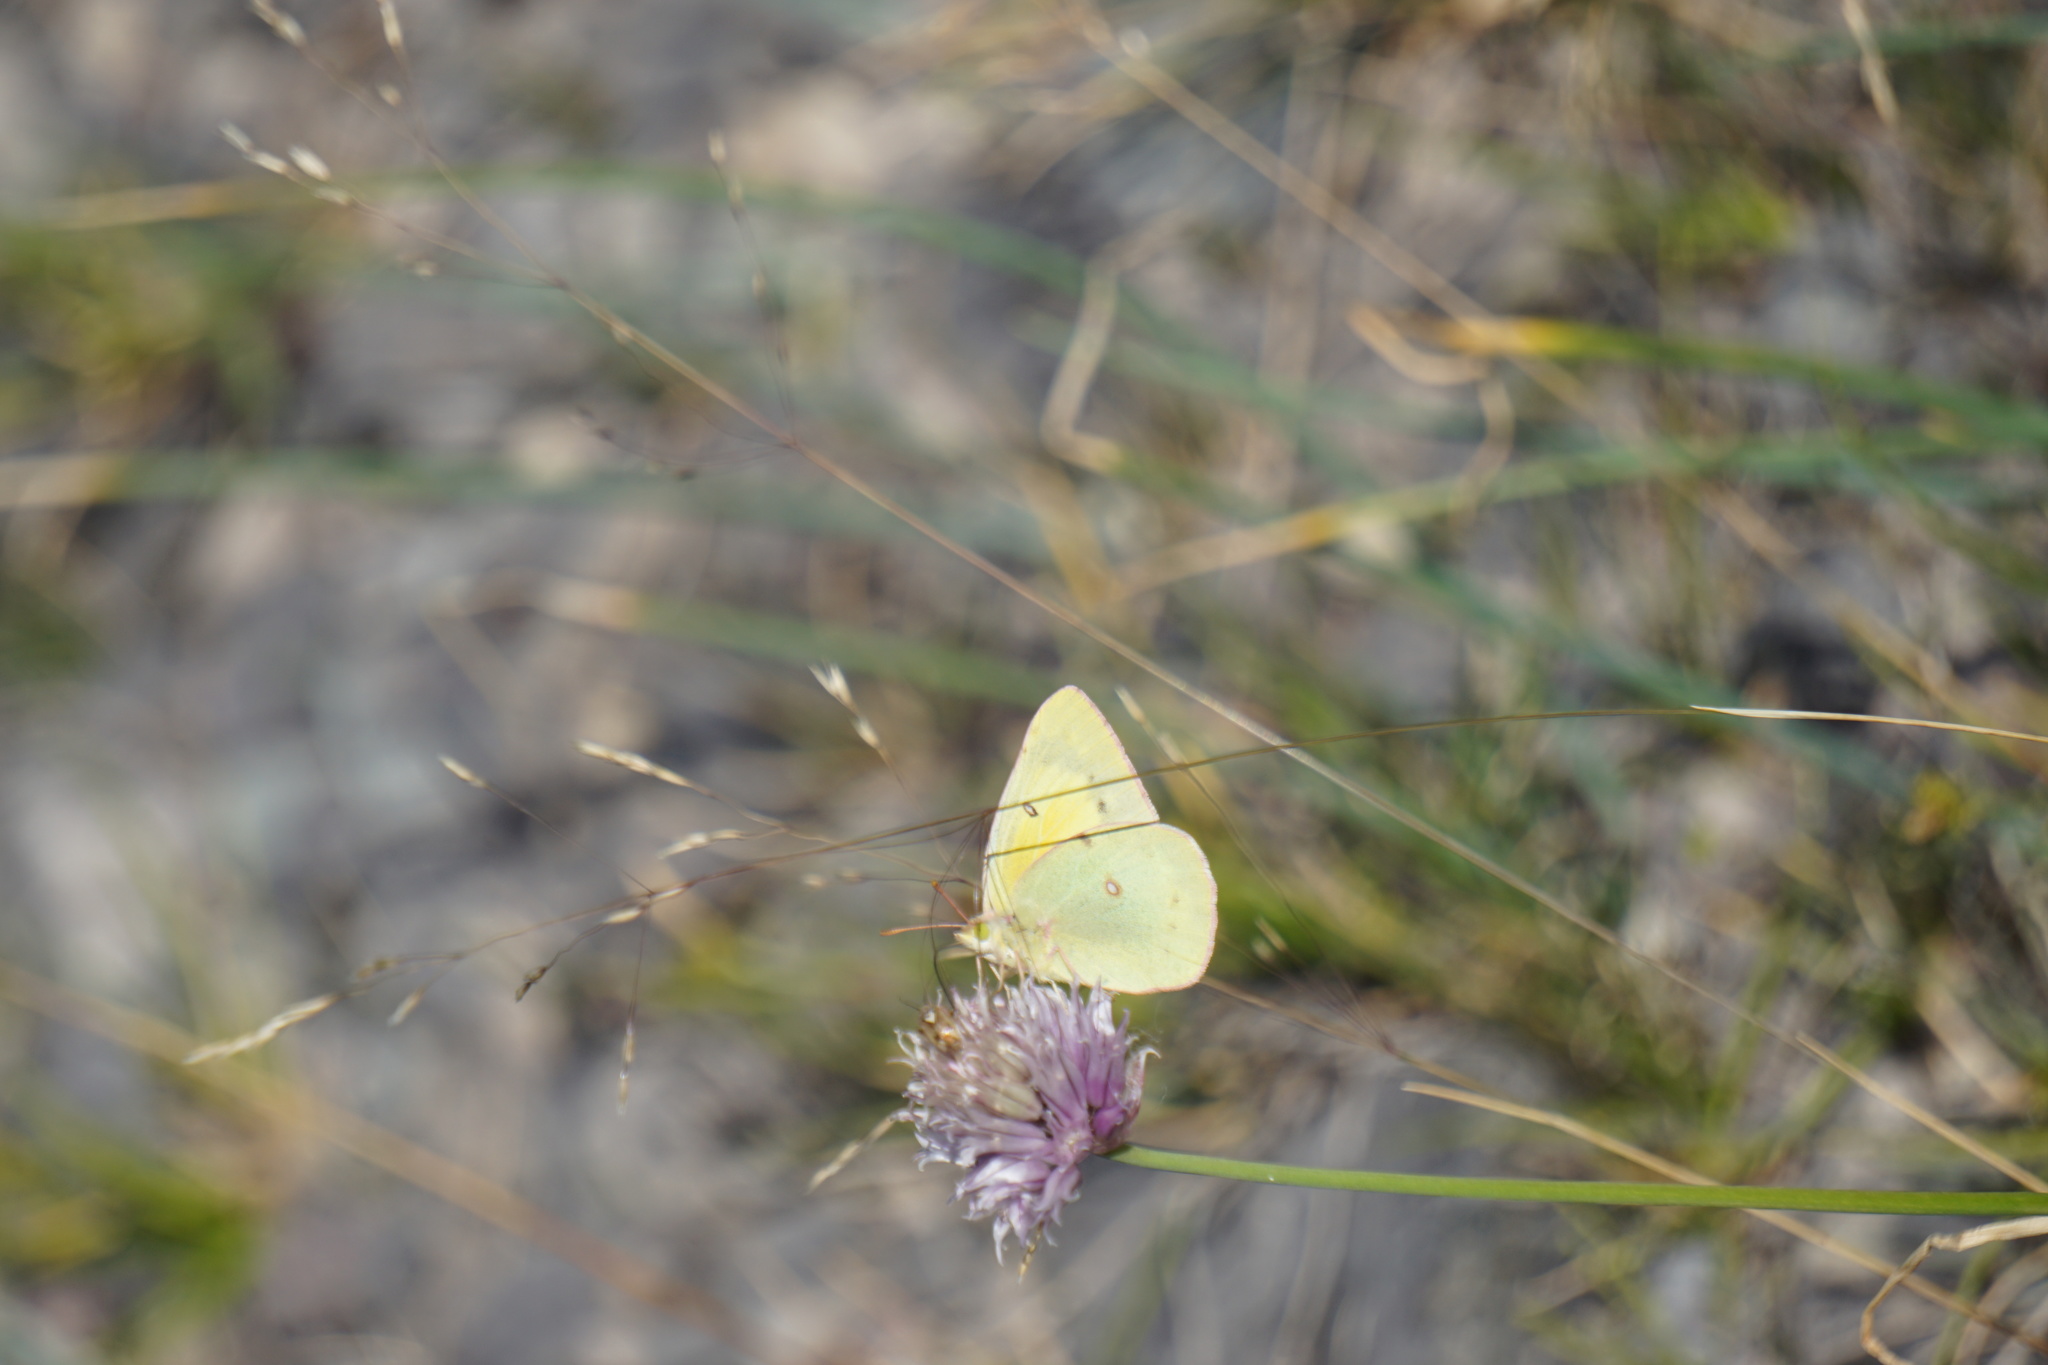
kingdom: Animalia
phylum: Arthropoda
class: Insecta
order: Lepidoptera
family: Pieridae
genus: Colias
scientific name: Colias philodice
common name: Clouded sulphur
